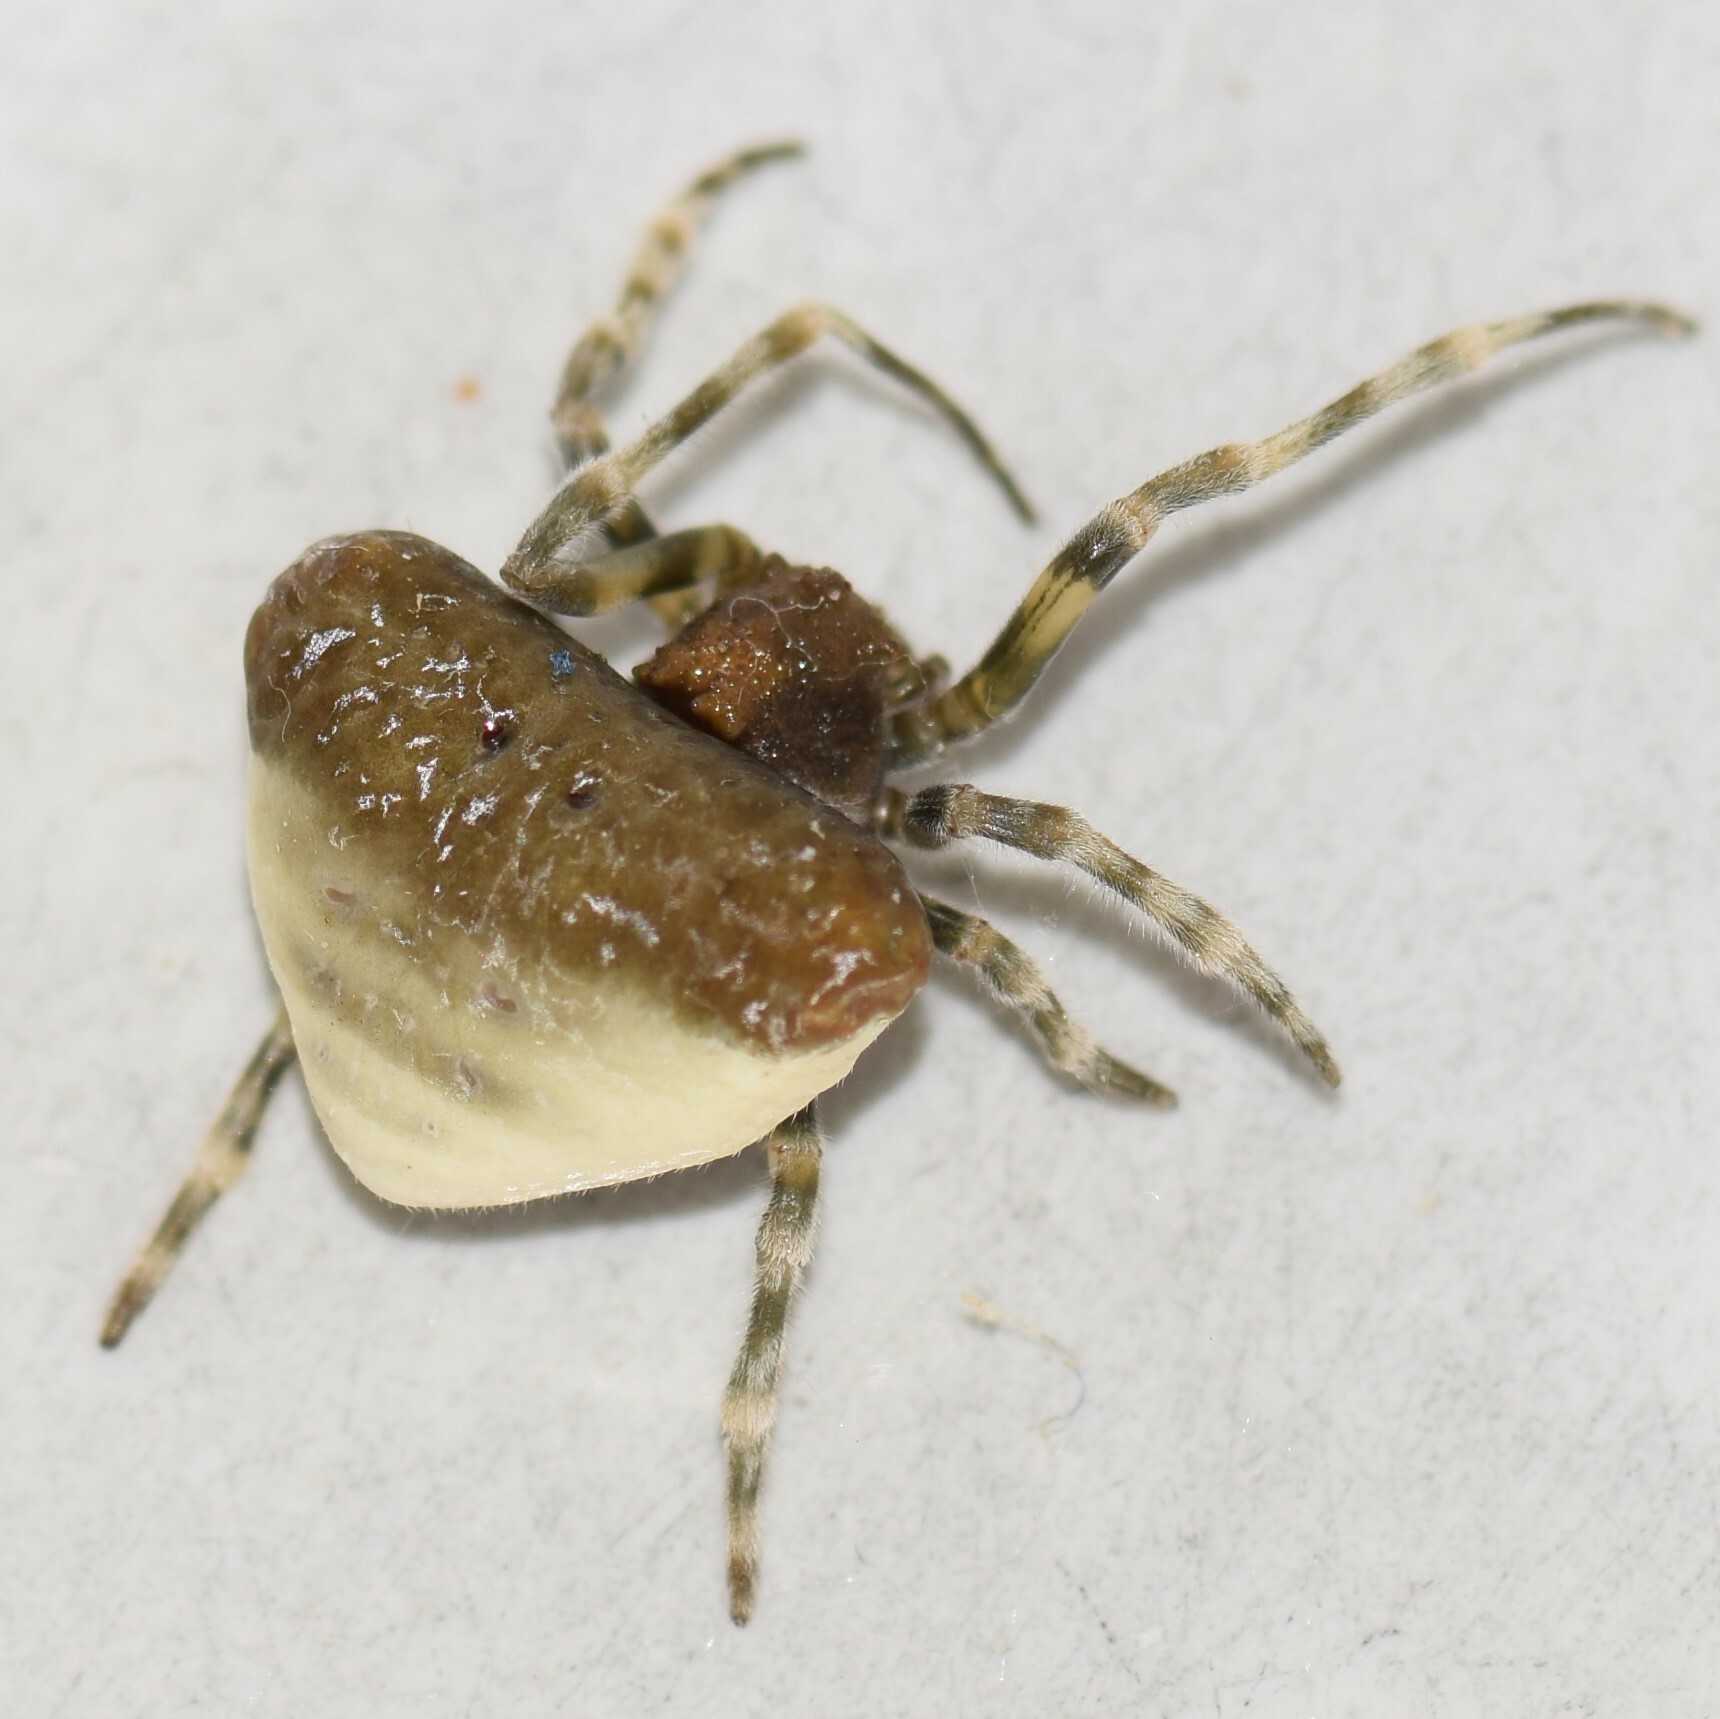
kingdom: Animalia
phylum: Arthropoda
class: Arachnida
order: Araneae
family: Araneidae
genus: Mastophora
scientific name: Mastophora phrynosoma
